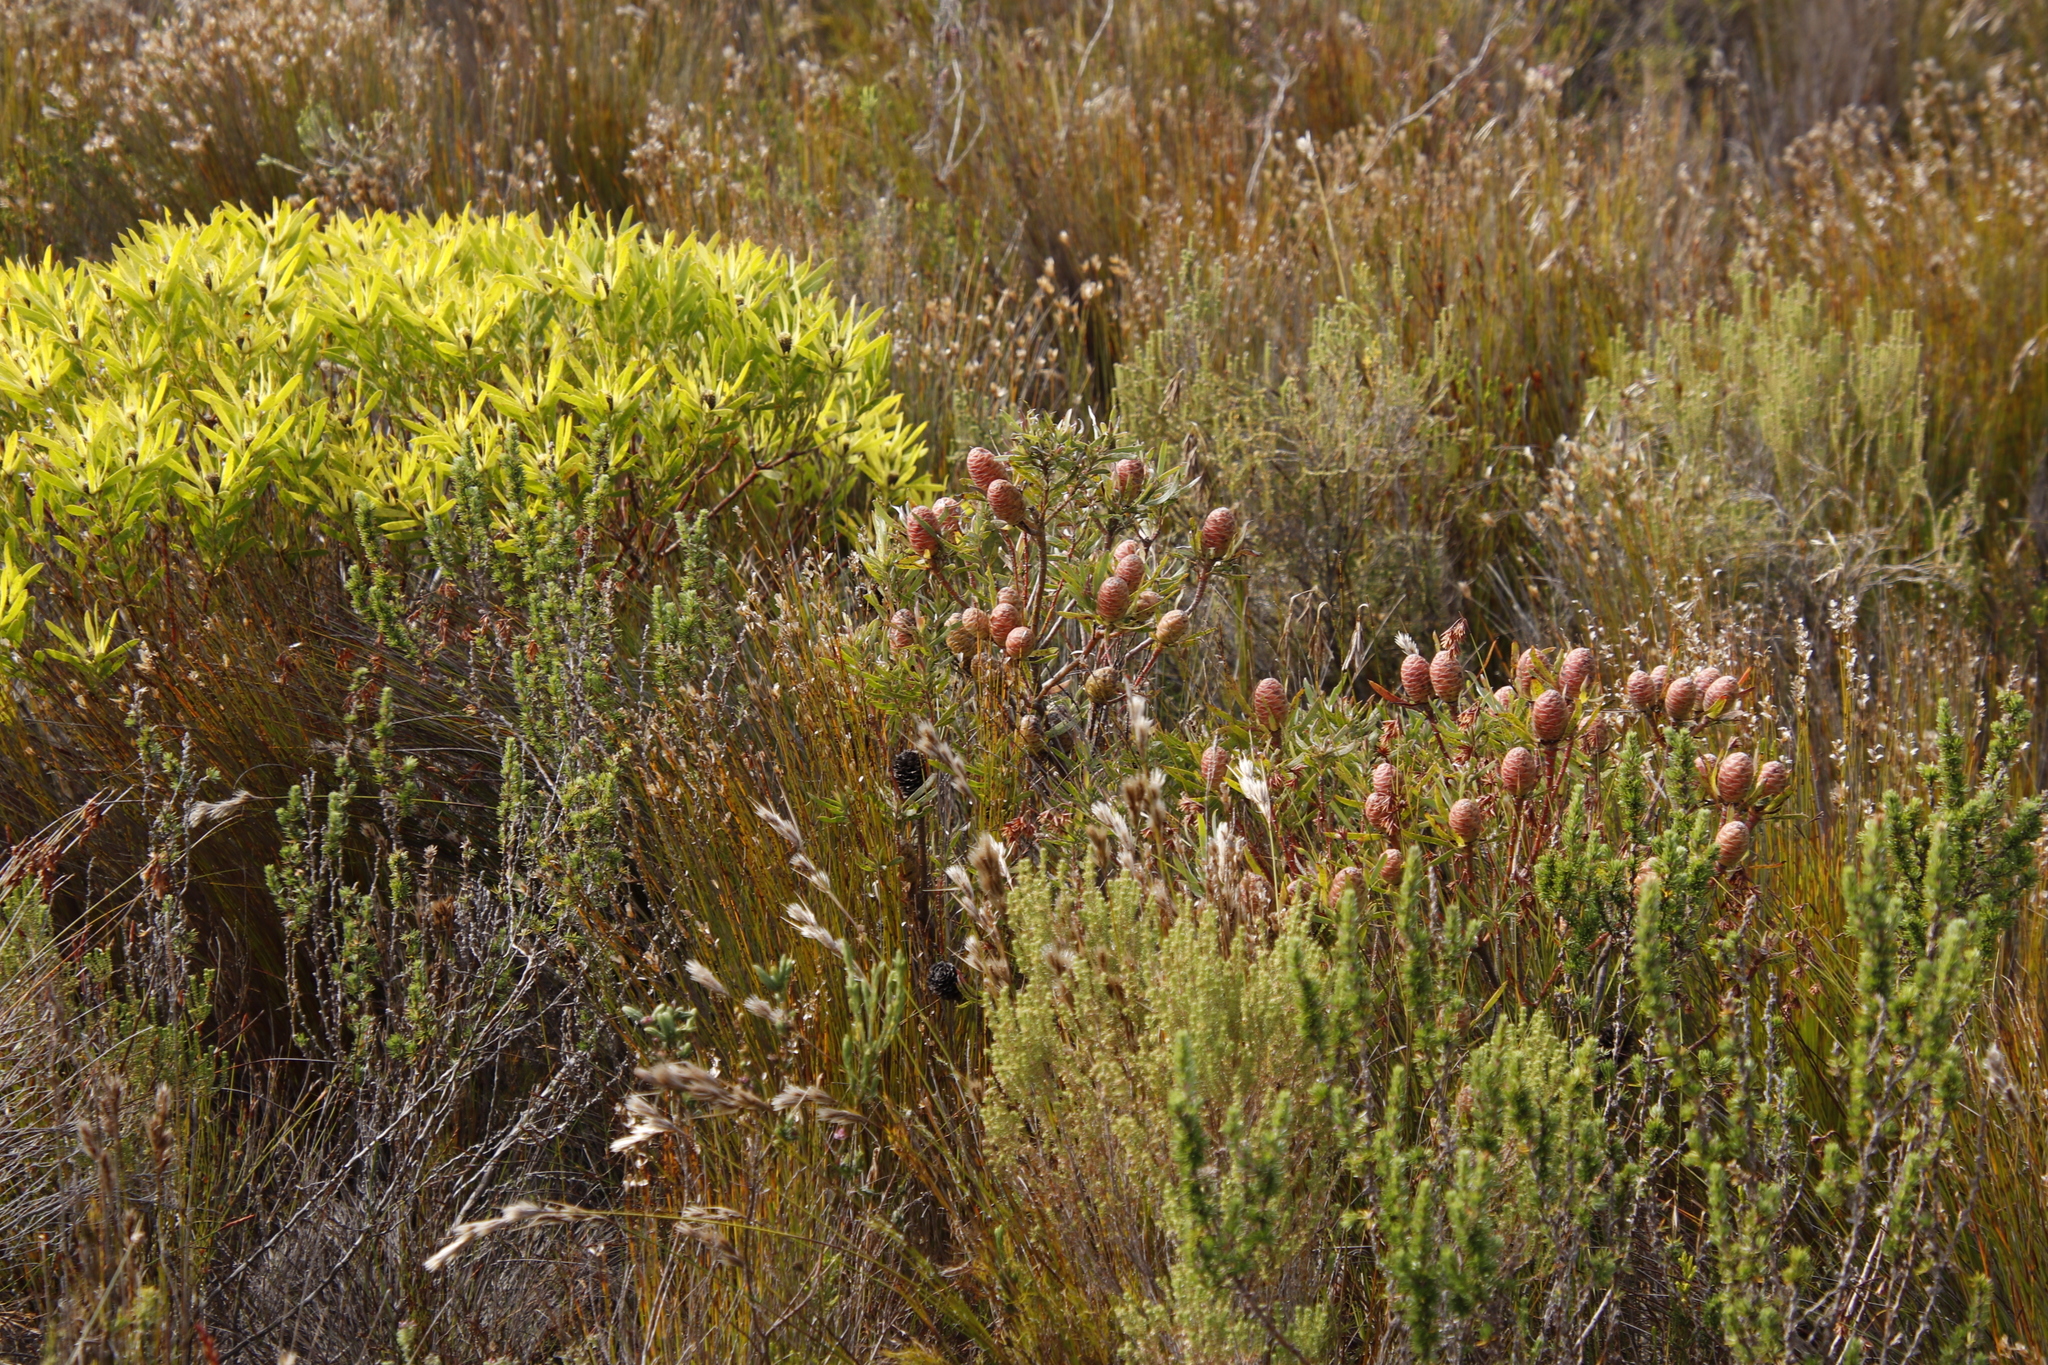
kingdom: Plantae
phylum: Tracheophyta
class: Magnoliopsida
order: Proteales
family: Proteaceae
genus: Leucadendron
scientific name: Leucadendron coniferum
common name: Dune conebush
